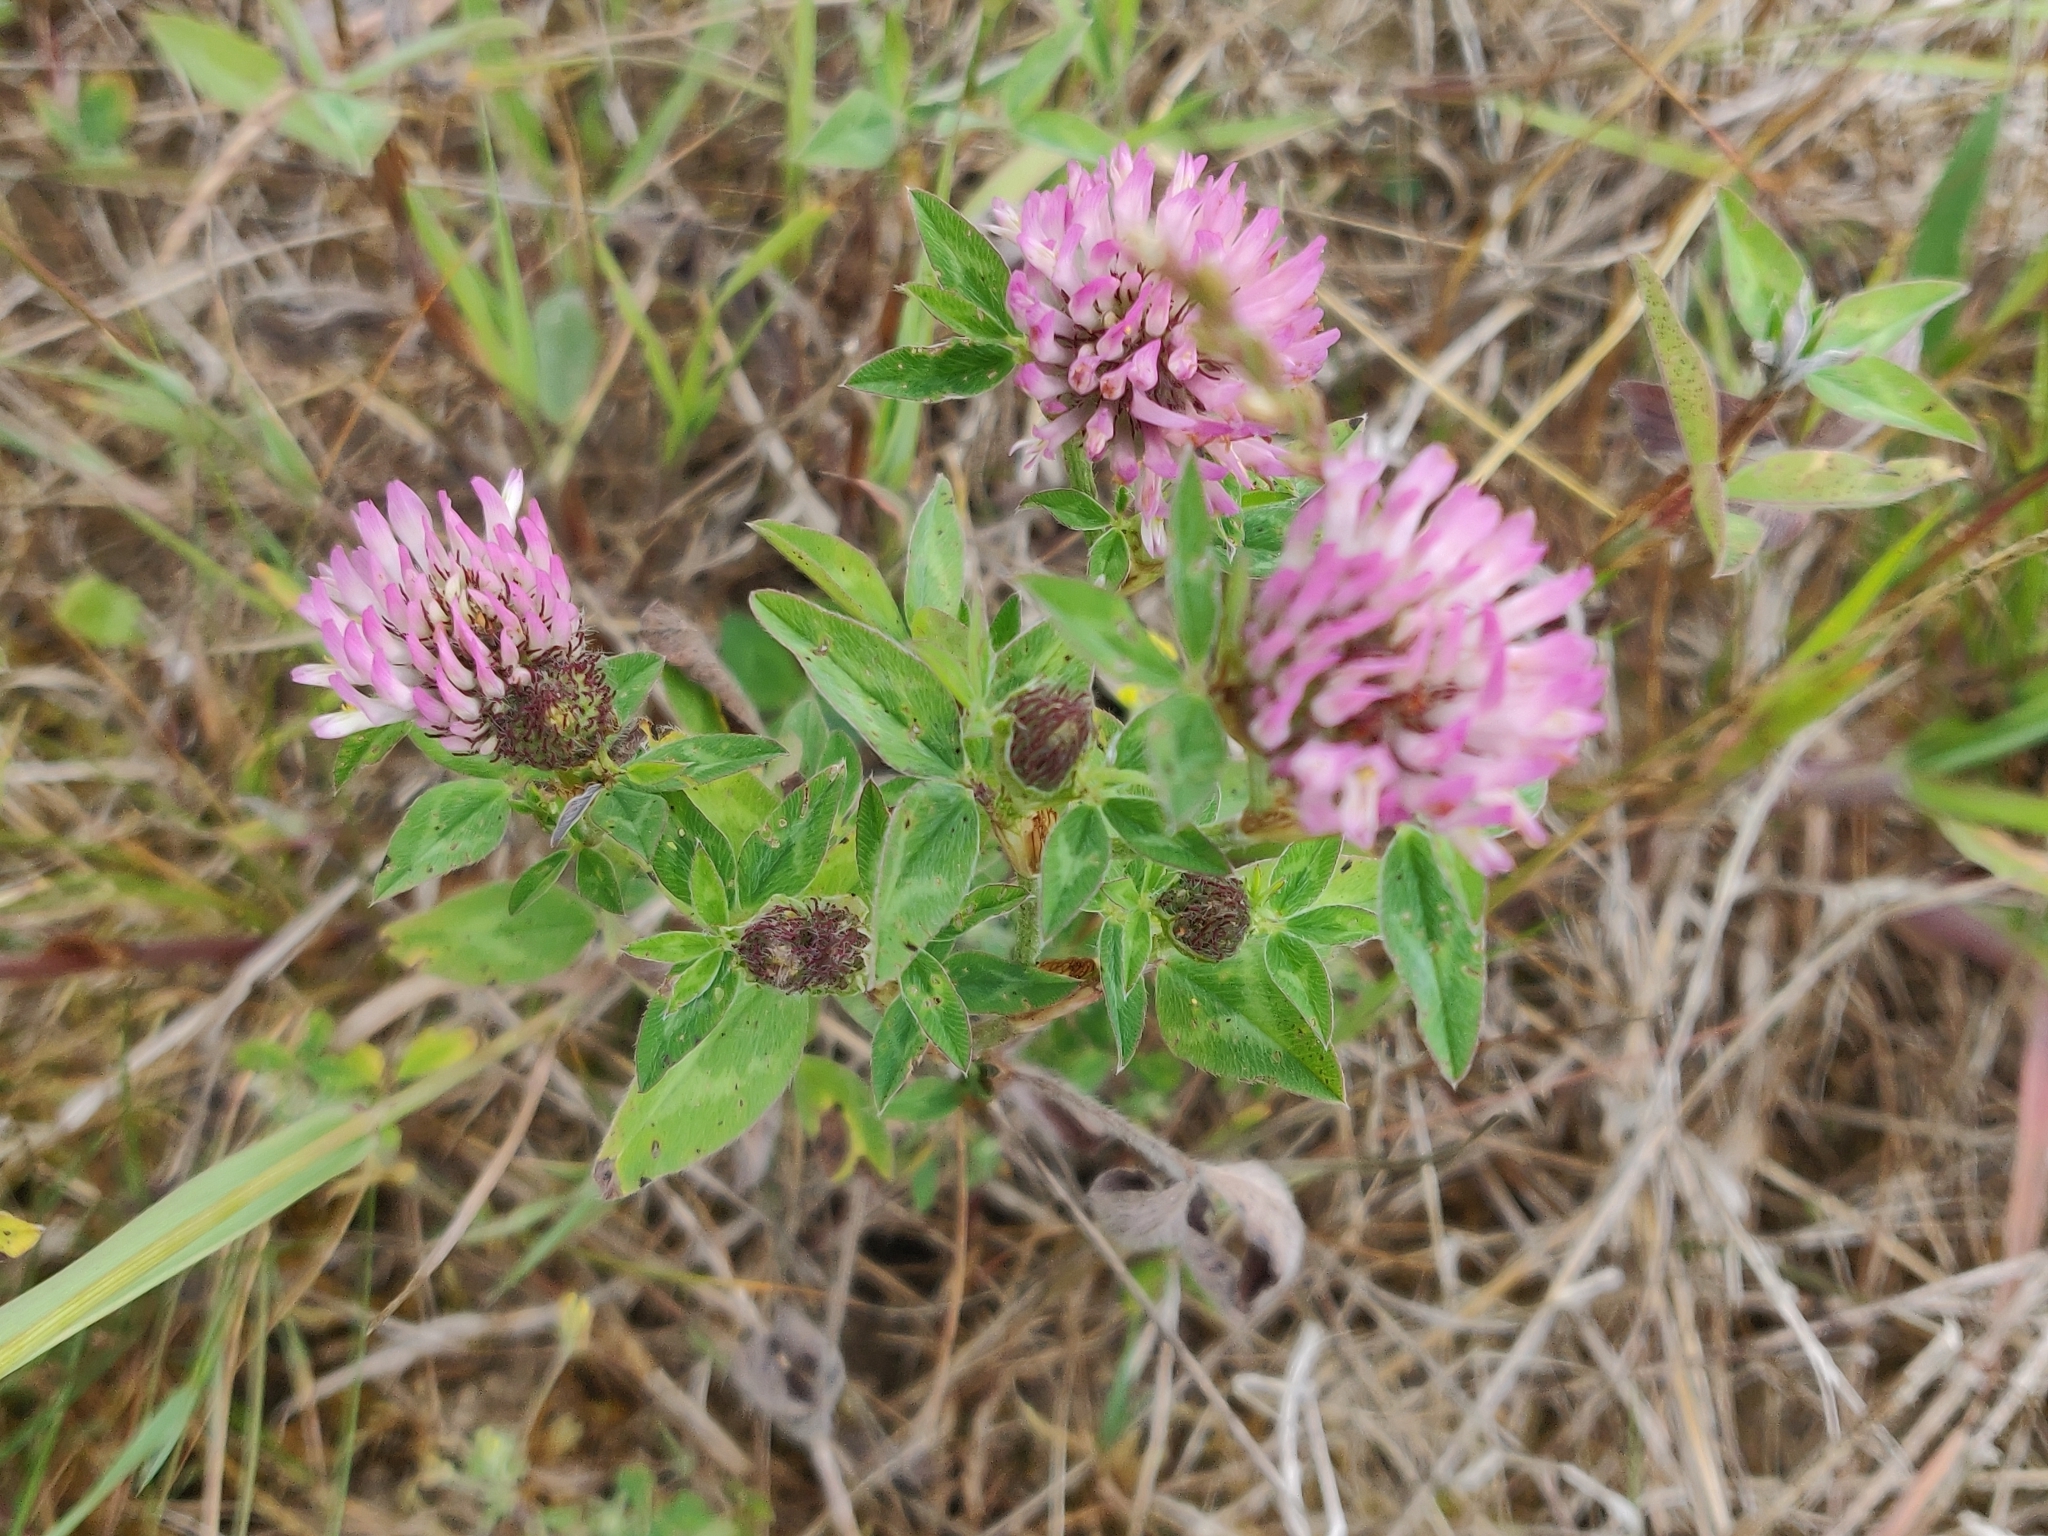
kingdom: Plantae
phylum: Tracheophyta
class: Magnoliopsida
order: Fabales
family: Fabaceae
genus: Trifolium
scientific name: Trifolium pratense
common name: Red clover
